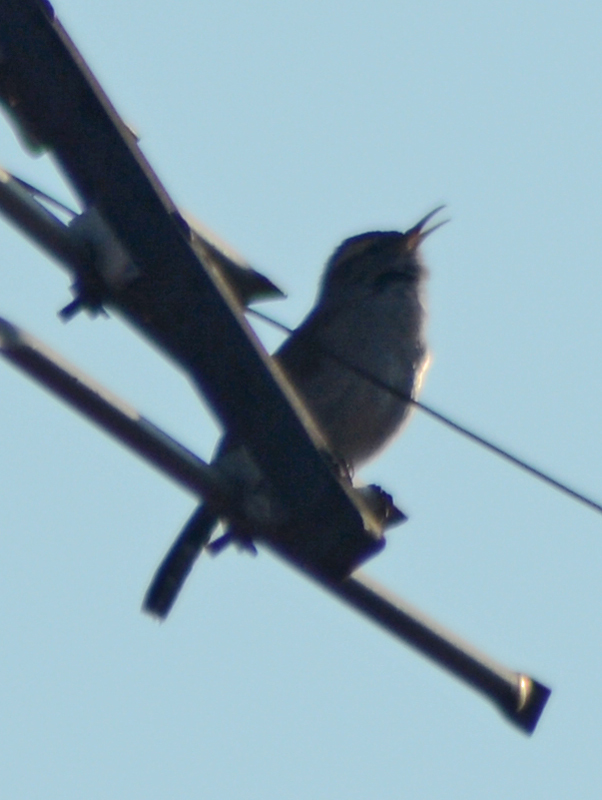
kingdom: Animalia
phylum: Chordata
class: Aves
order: Passeriformes
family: Troglodytidae
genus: Thryomanes
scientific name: Thryomanes bewickii
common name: Bewick's wren
